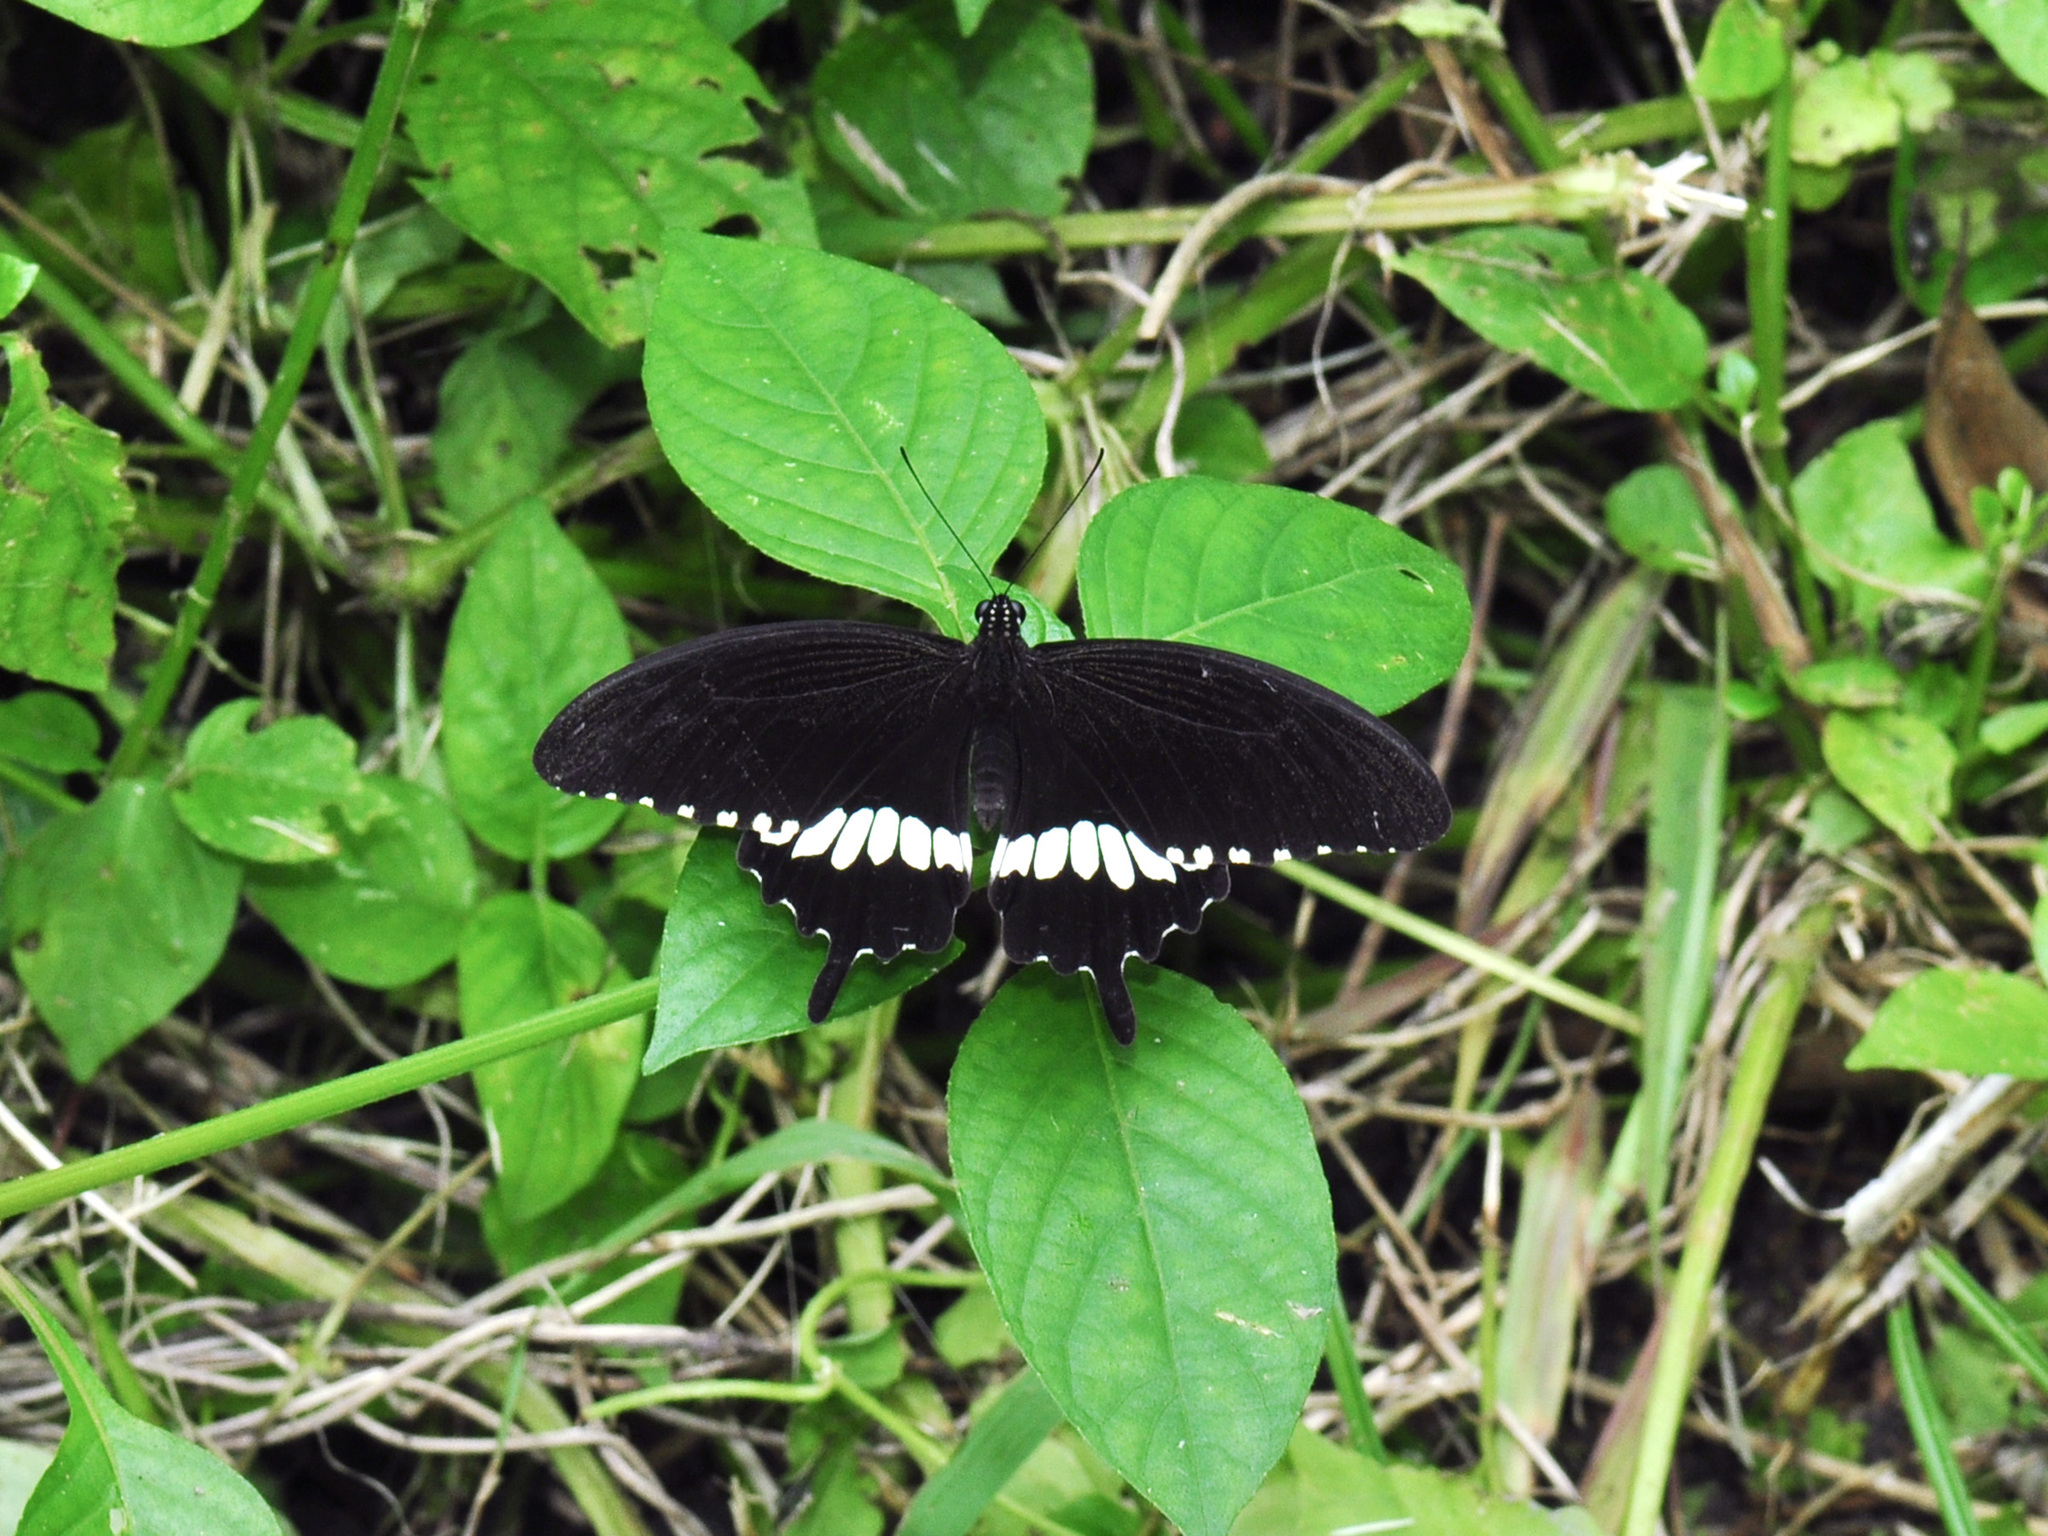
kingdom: Animalia
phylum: Arthropoda
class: Insecta
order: Lepidoptera
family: Papilionidae
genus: Papilio
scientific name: Papilio polytes
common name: Common mormon
